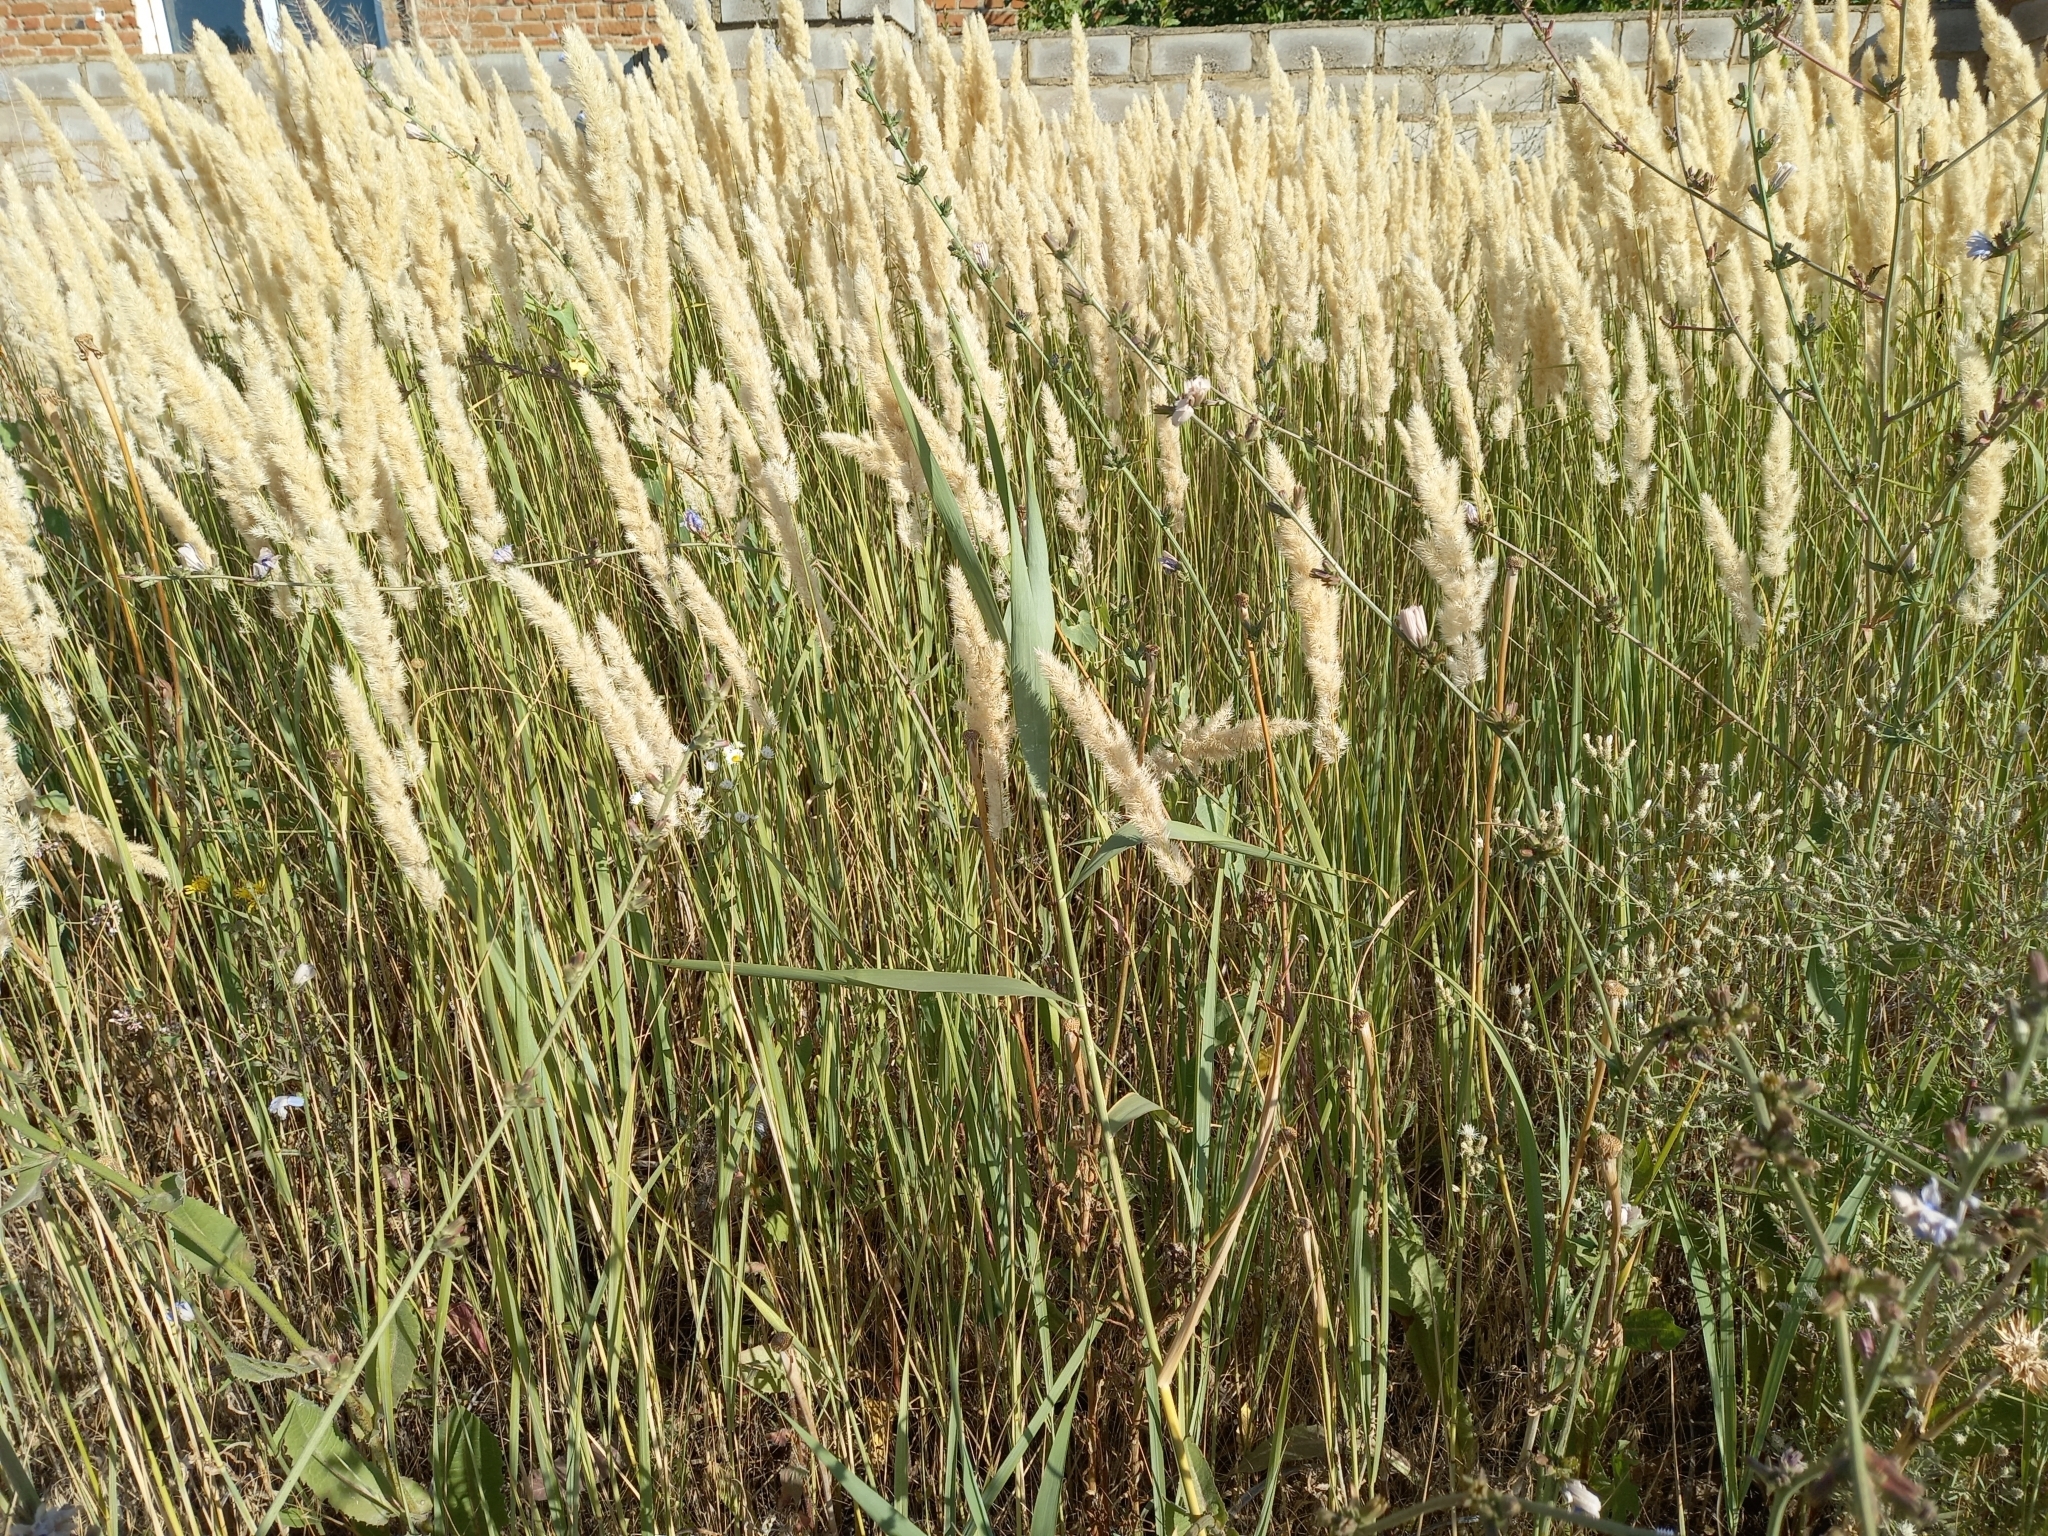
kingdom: Plantae
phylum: Tracheophyta
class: Liliopsida
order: Poales
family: Poaceae
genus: Calamagrostis
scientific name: Calamagrostis epigejos
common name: Wood small-reed
